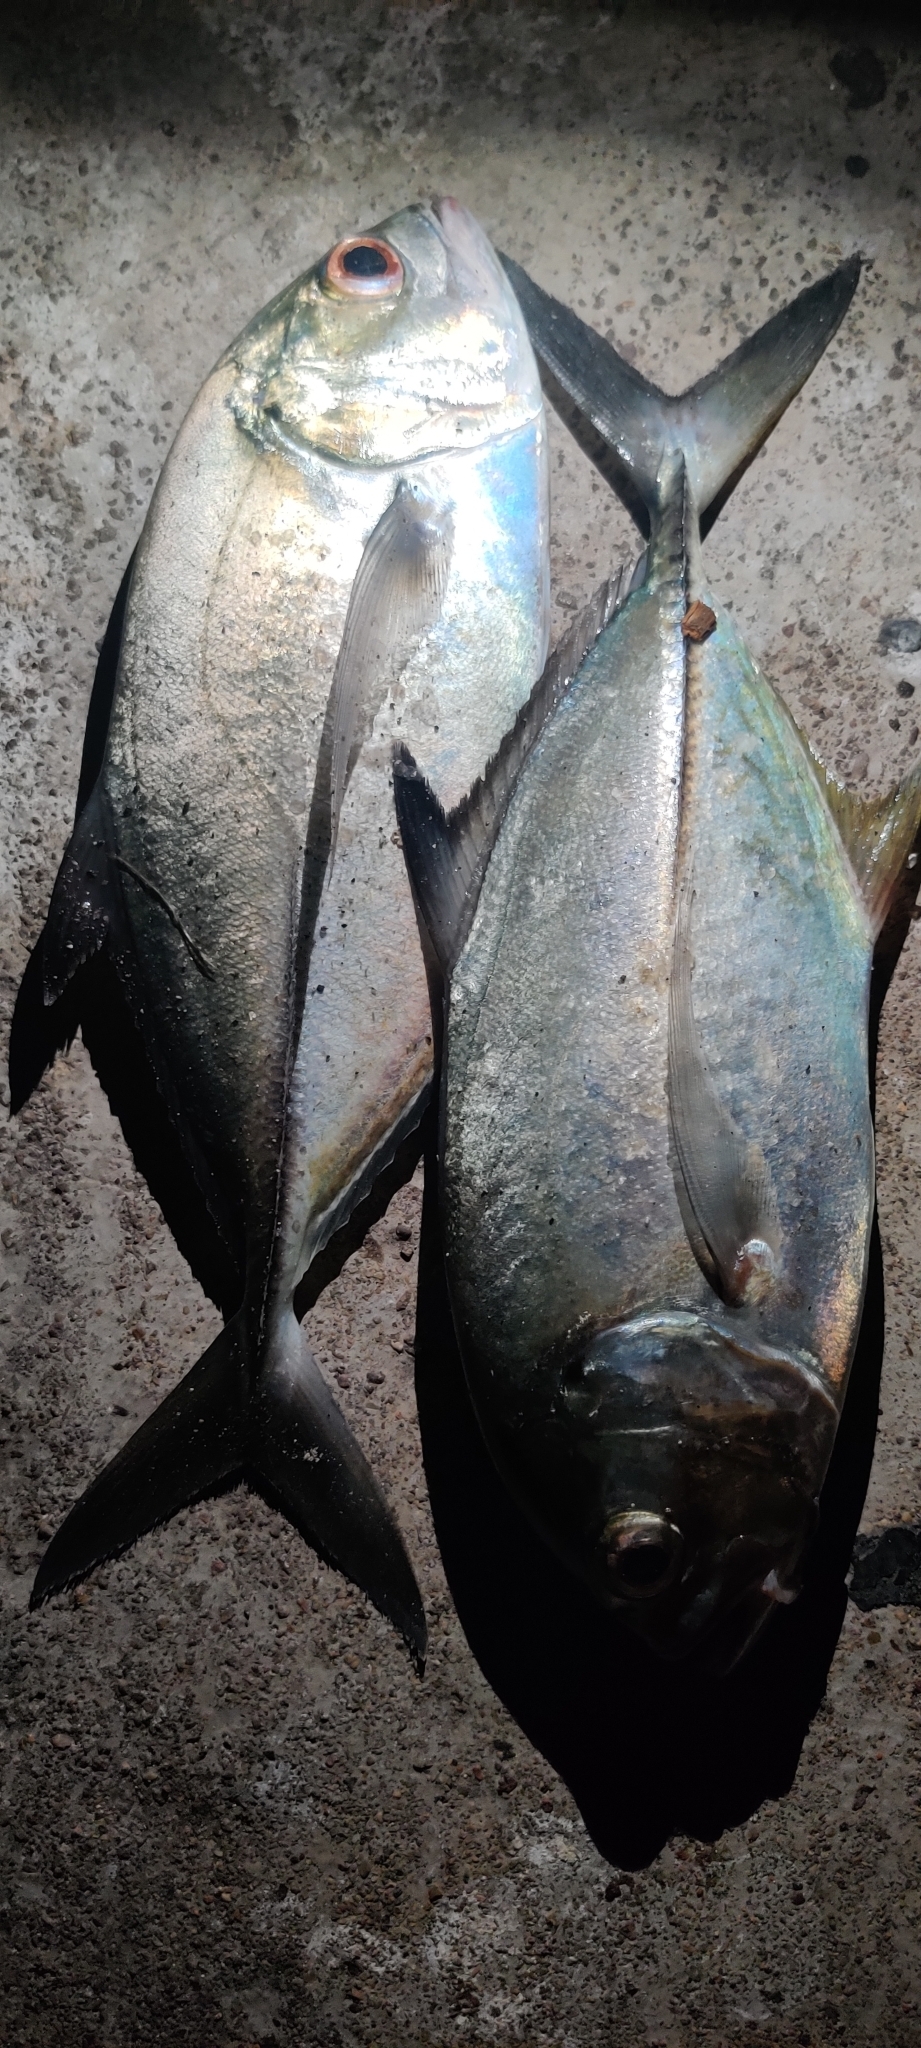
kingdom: Animalia
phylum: Chordata
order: Perciformes
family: Carangidae
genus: Caranx
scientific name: Caranx sexfasciatus
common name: Bigeye trevally
